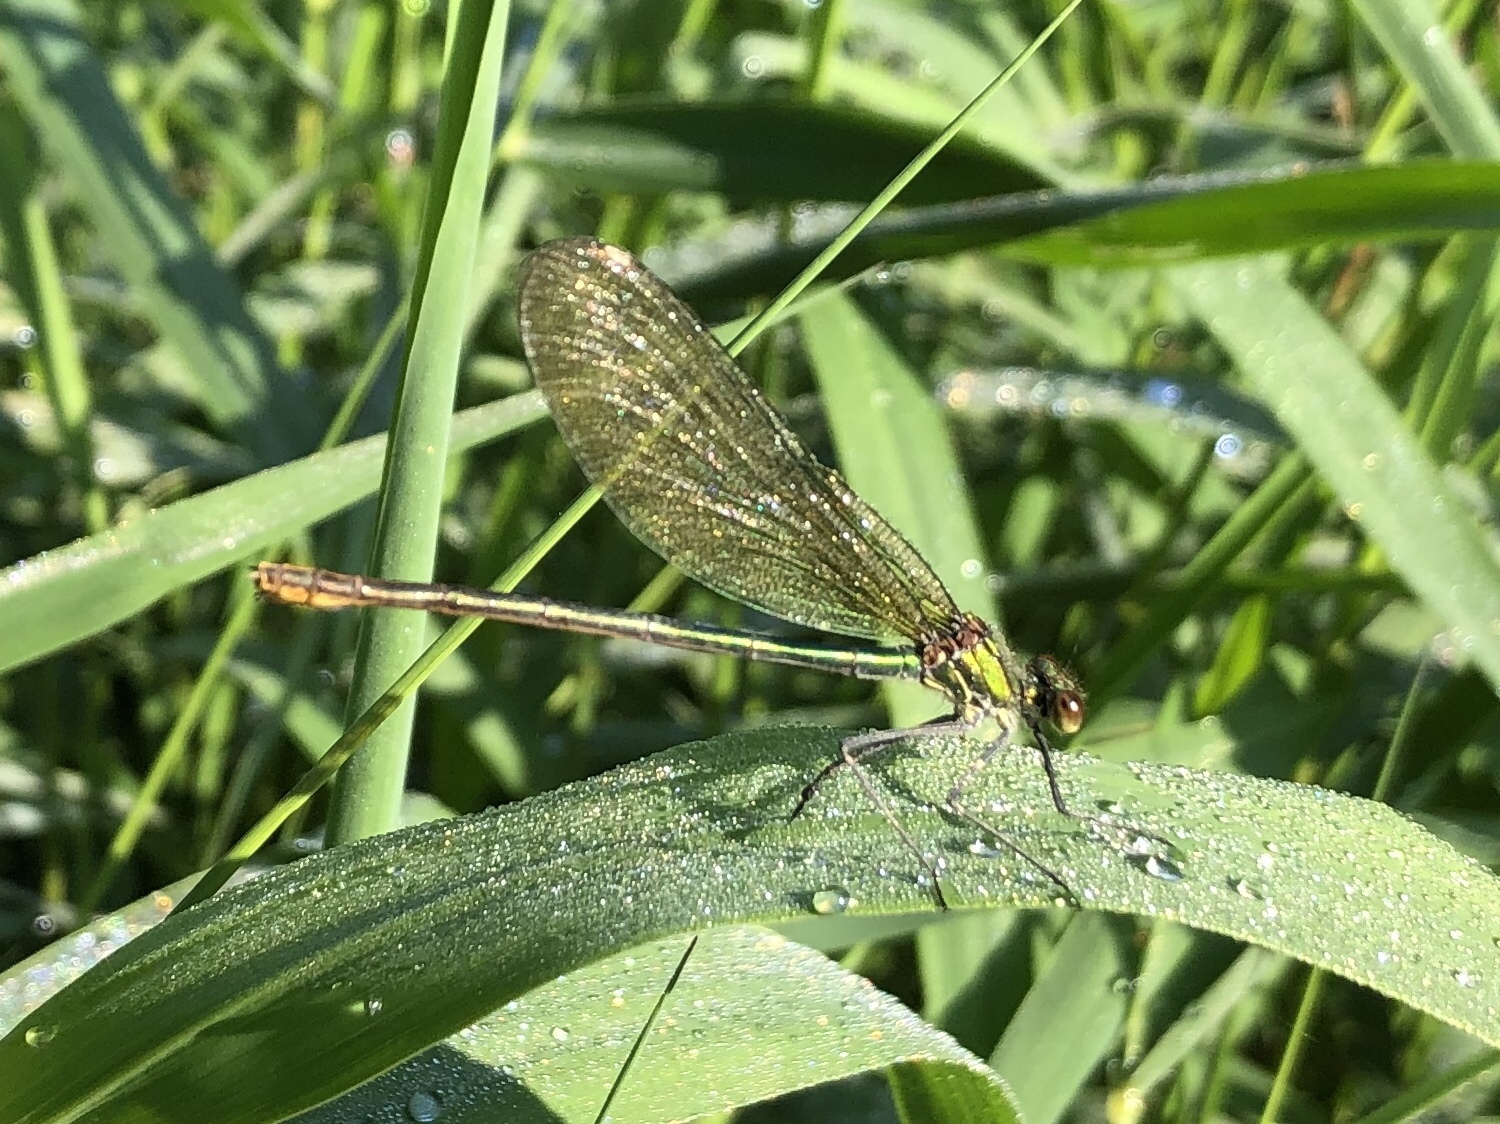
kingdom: Animalia
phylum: Arthropoda
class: Insecta
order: Odonata
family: Calopterygidae
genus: Calopteryx
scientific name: Calopteryx splendens
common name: Banded demoiselle
